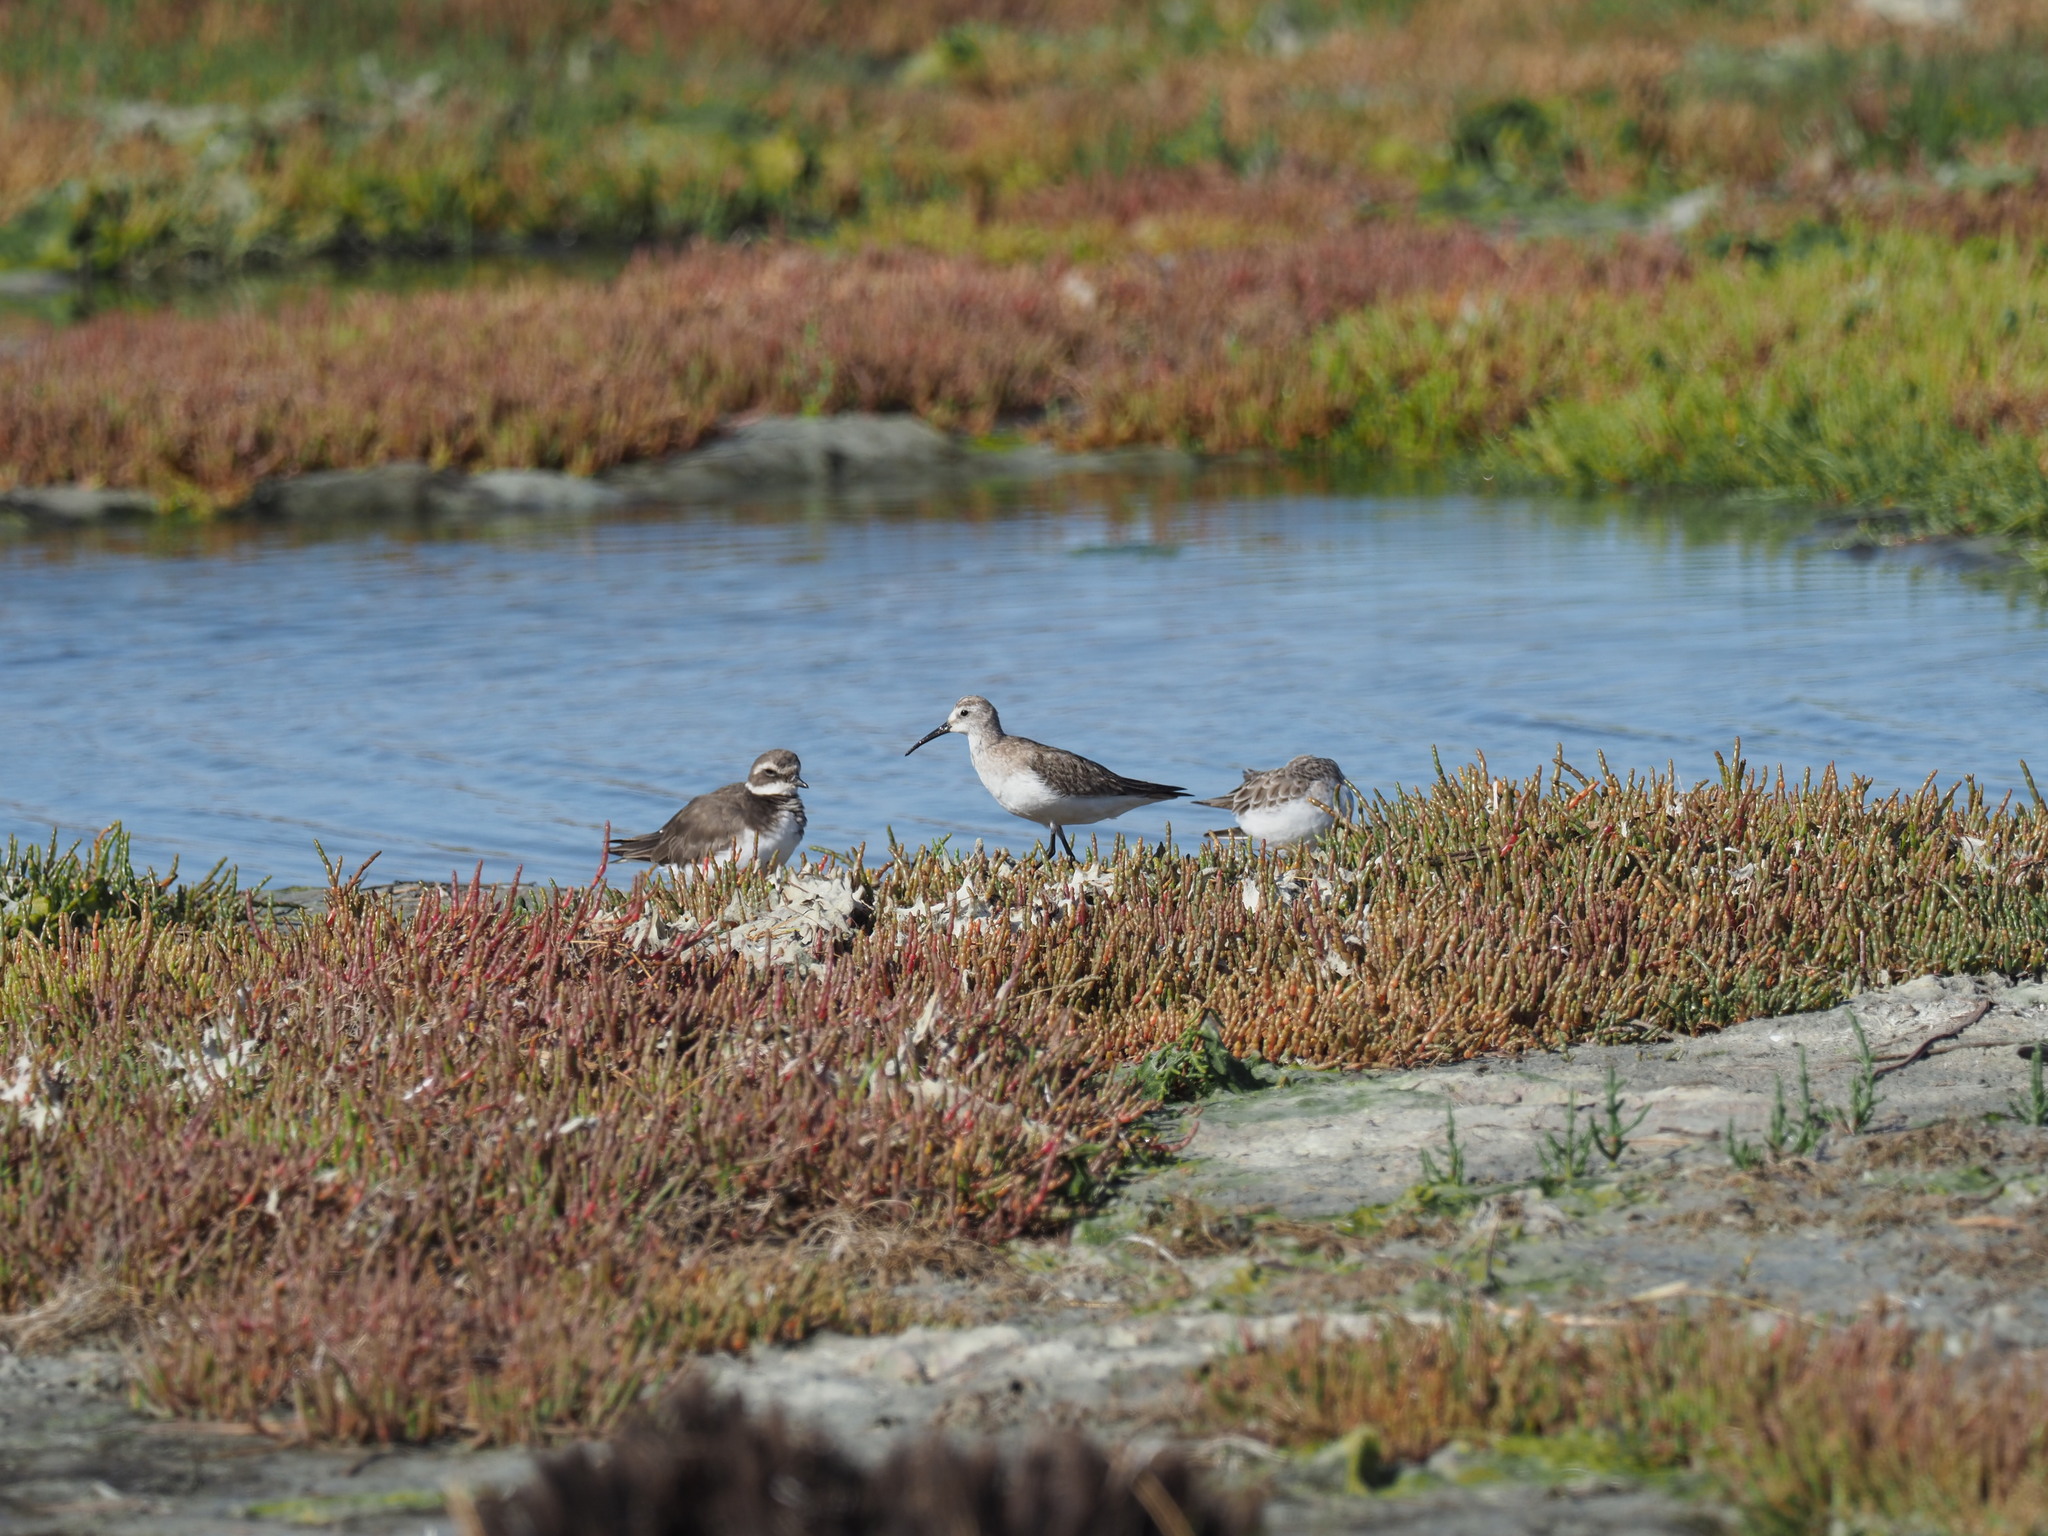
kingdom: Animalia
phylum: Chordata
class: Aves
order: Charadriiformes
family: Scolopacidae
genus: Calidris
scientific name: Calidris ferruginea
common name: Curlew sandpiper
